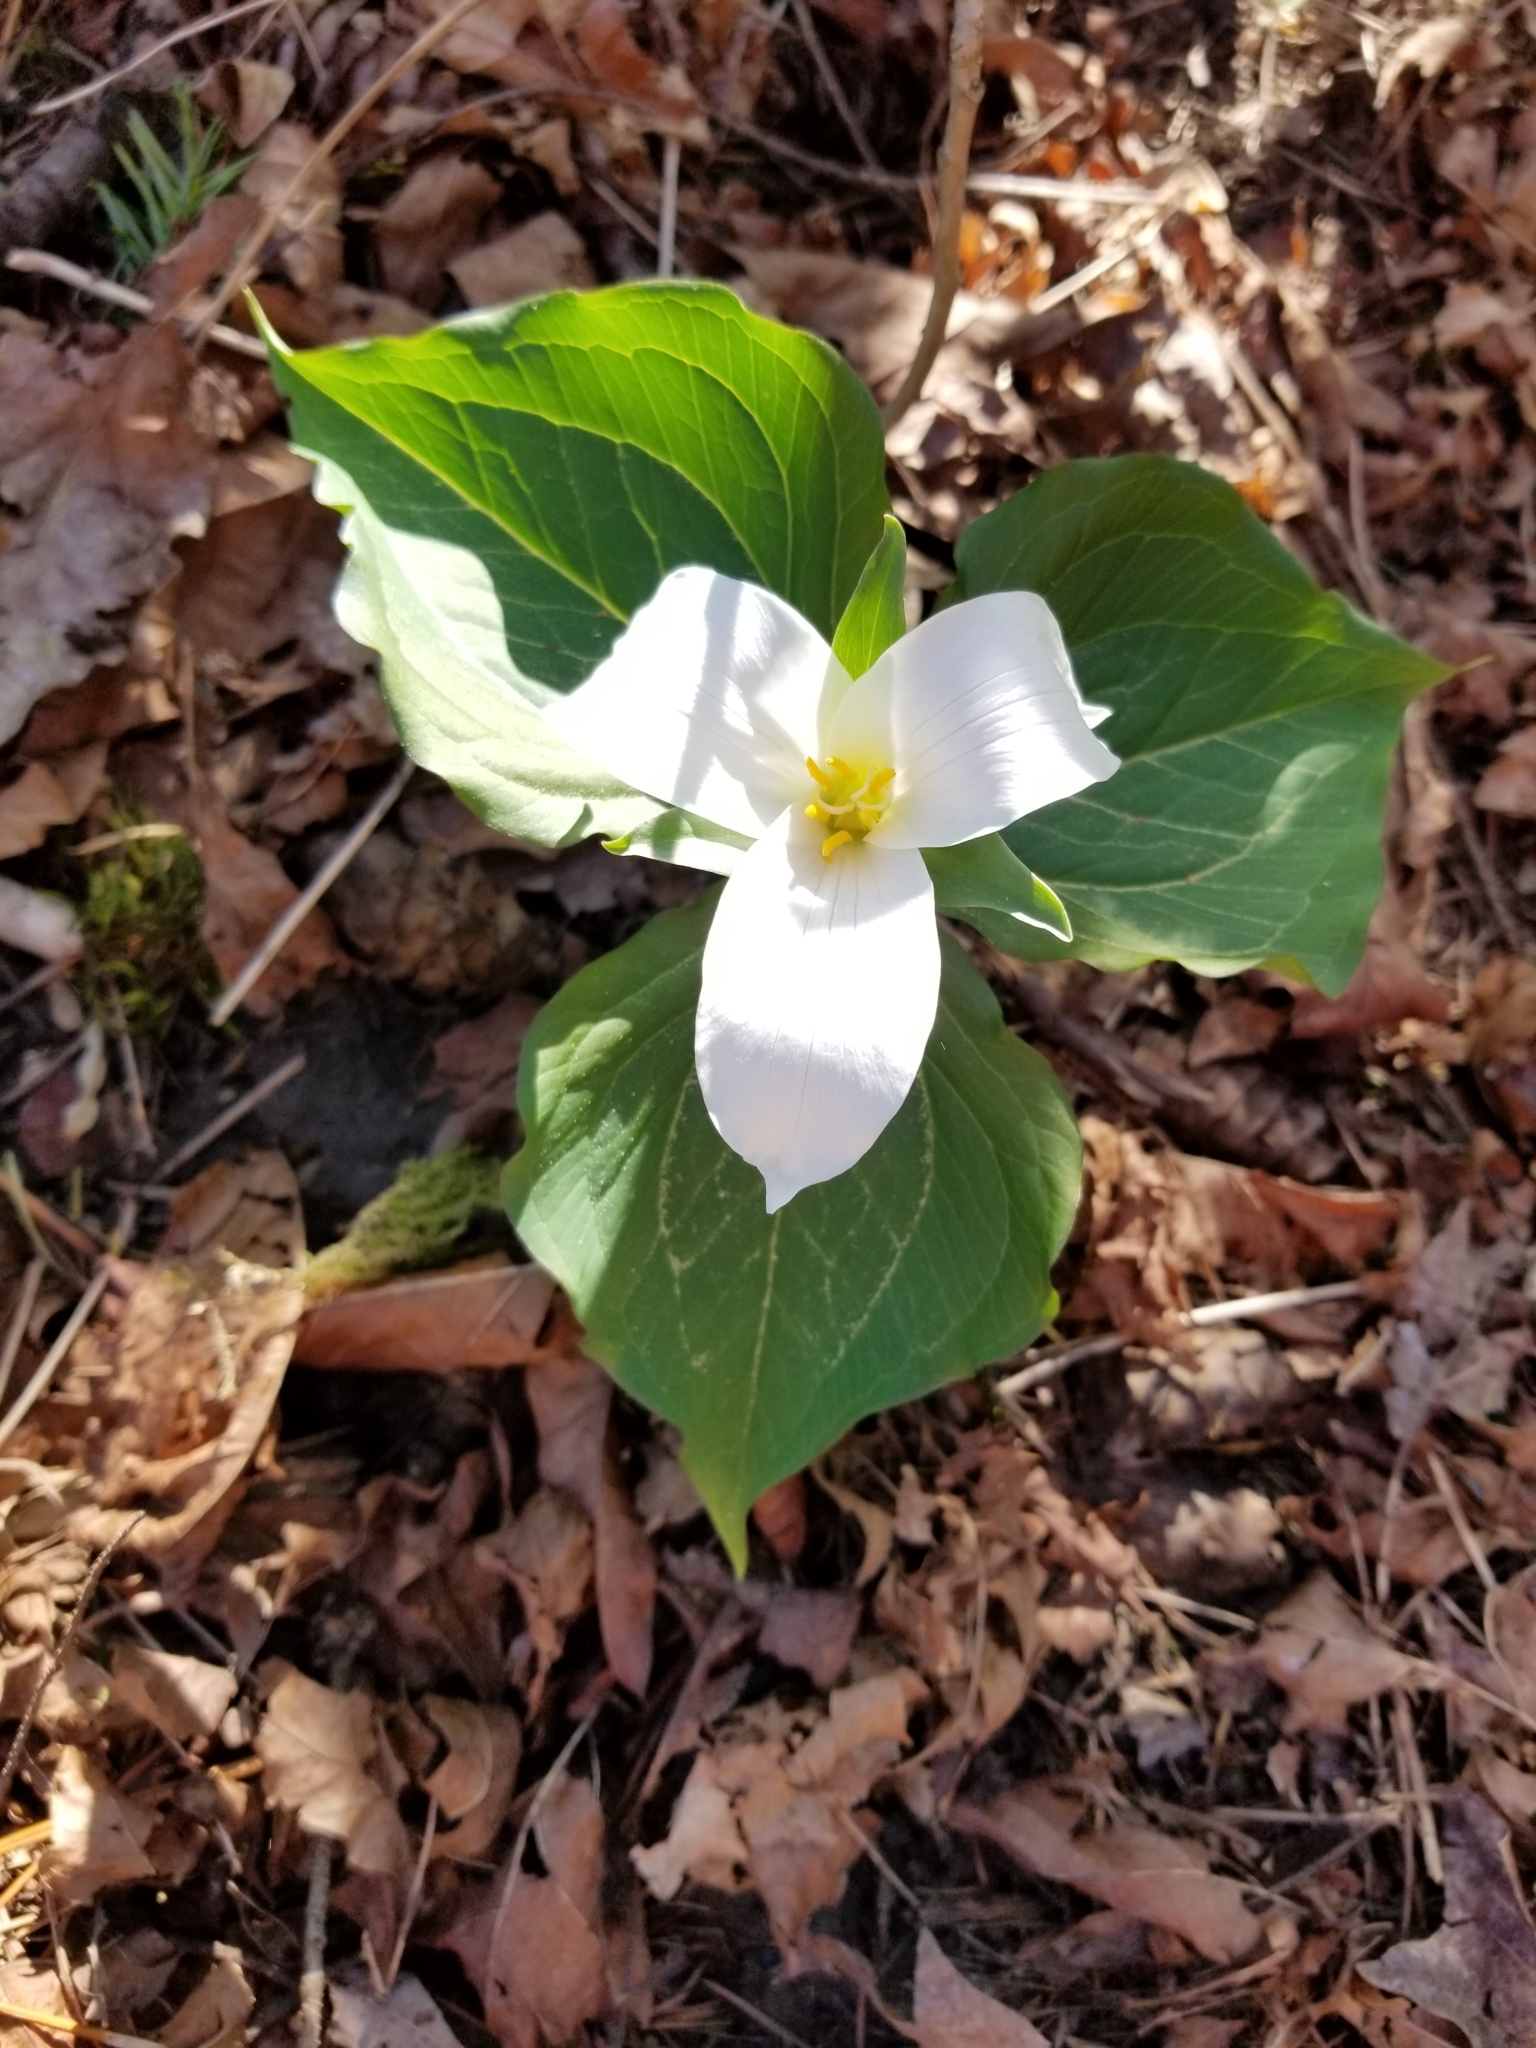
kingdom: Plantae
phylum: Tracheophyta
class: Liliopsida
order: Liliales
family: Melanthiaceae
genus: Trillium
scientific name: Trillium ovatum
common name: Pacific trillium
